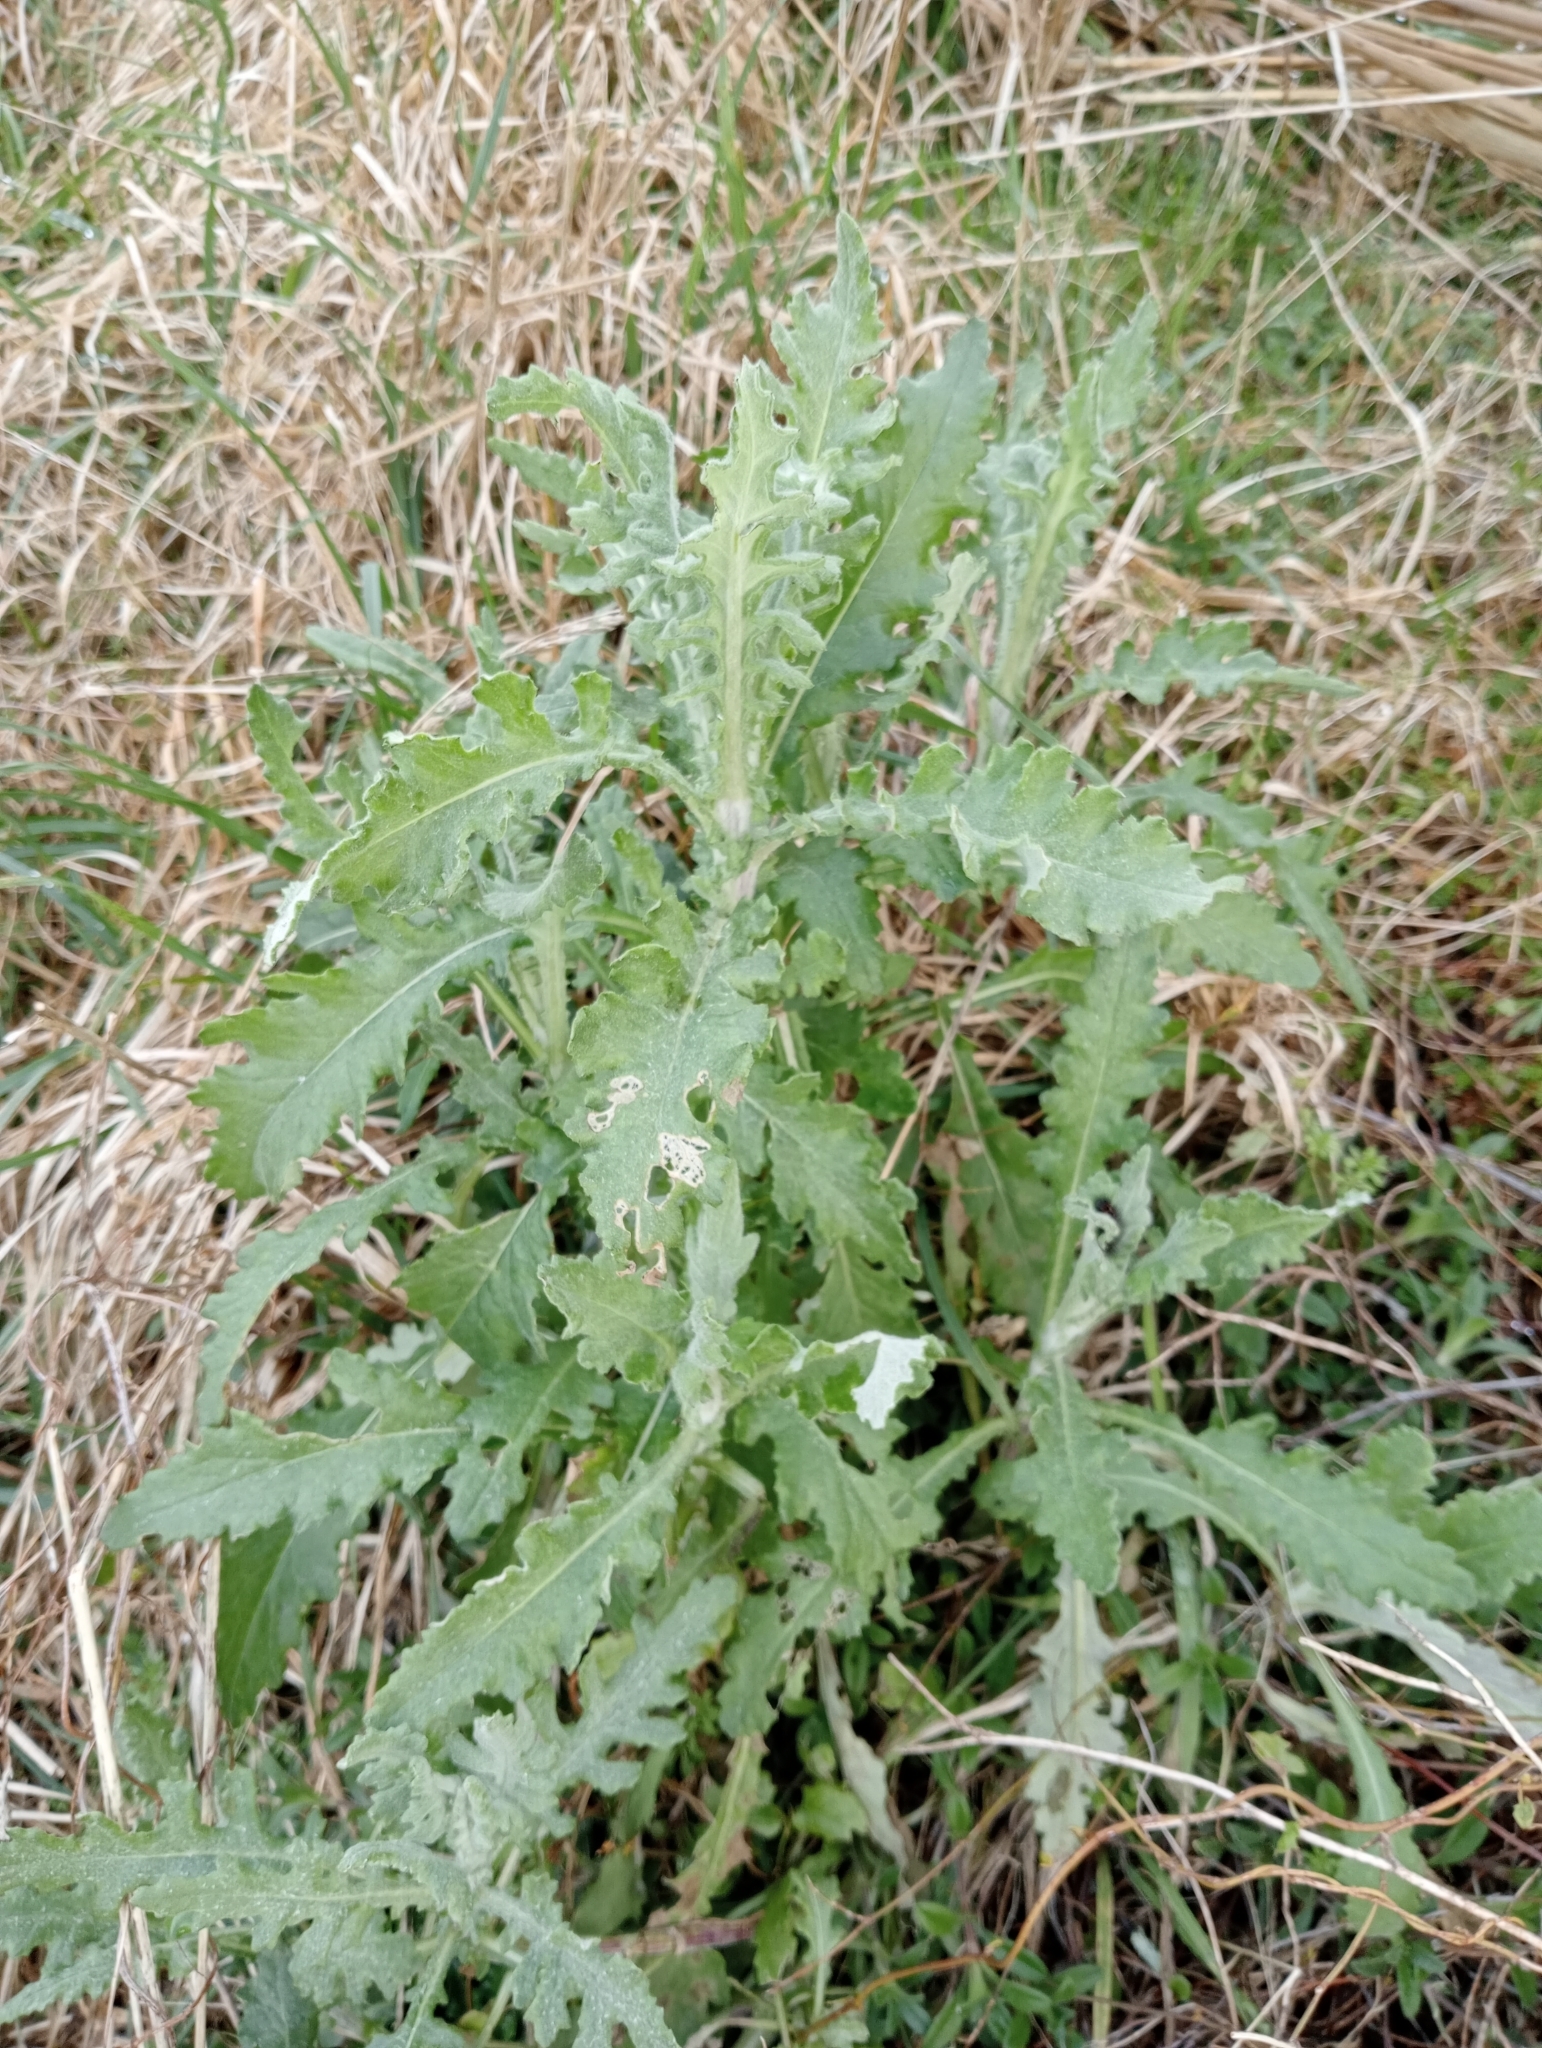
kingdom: Plantae
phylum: Tracheophyta
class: Magnoliopsida
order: Asterales
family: Asteraceae
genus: Senecio
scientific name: Senecio glomeratus
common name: Cutleaf burnweed
